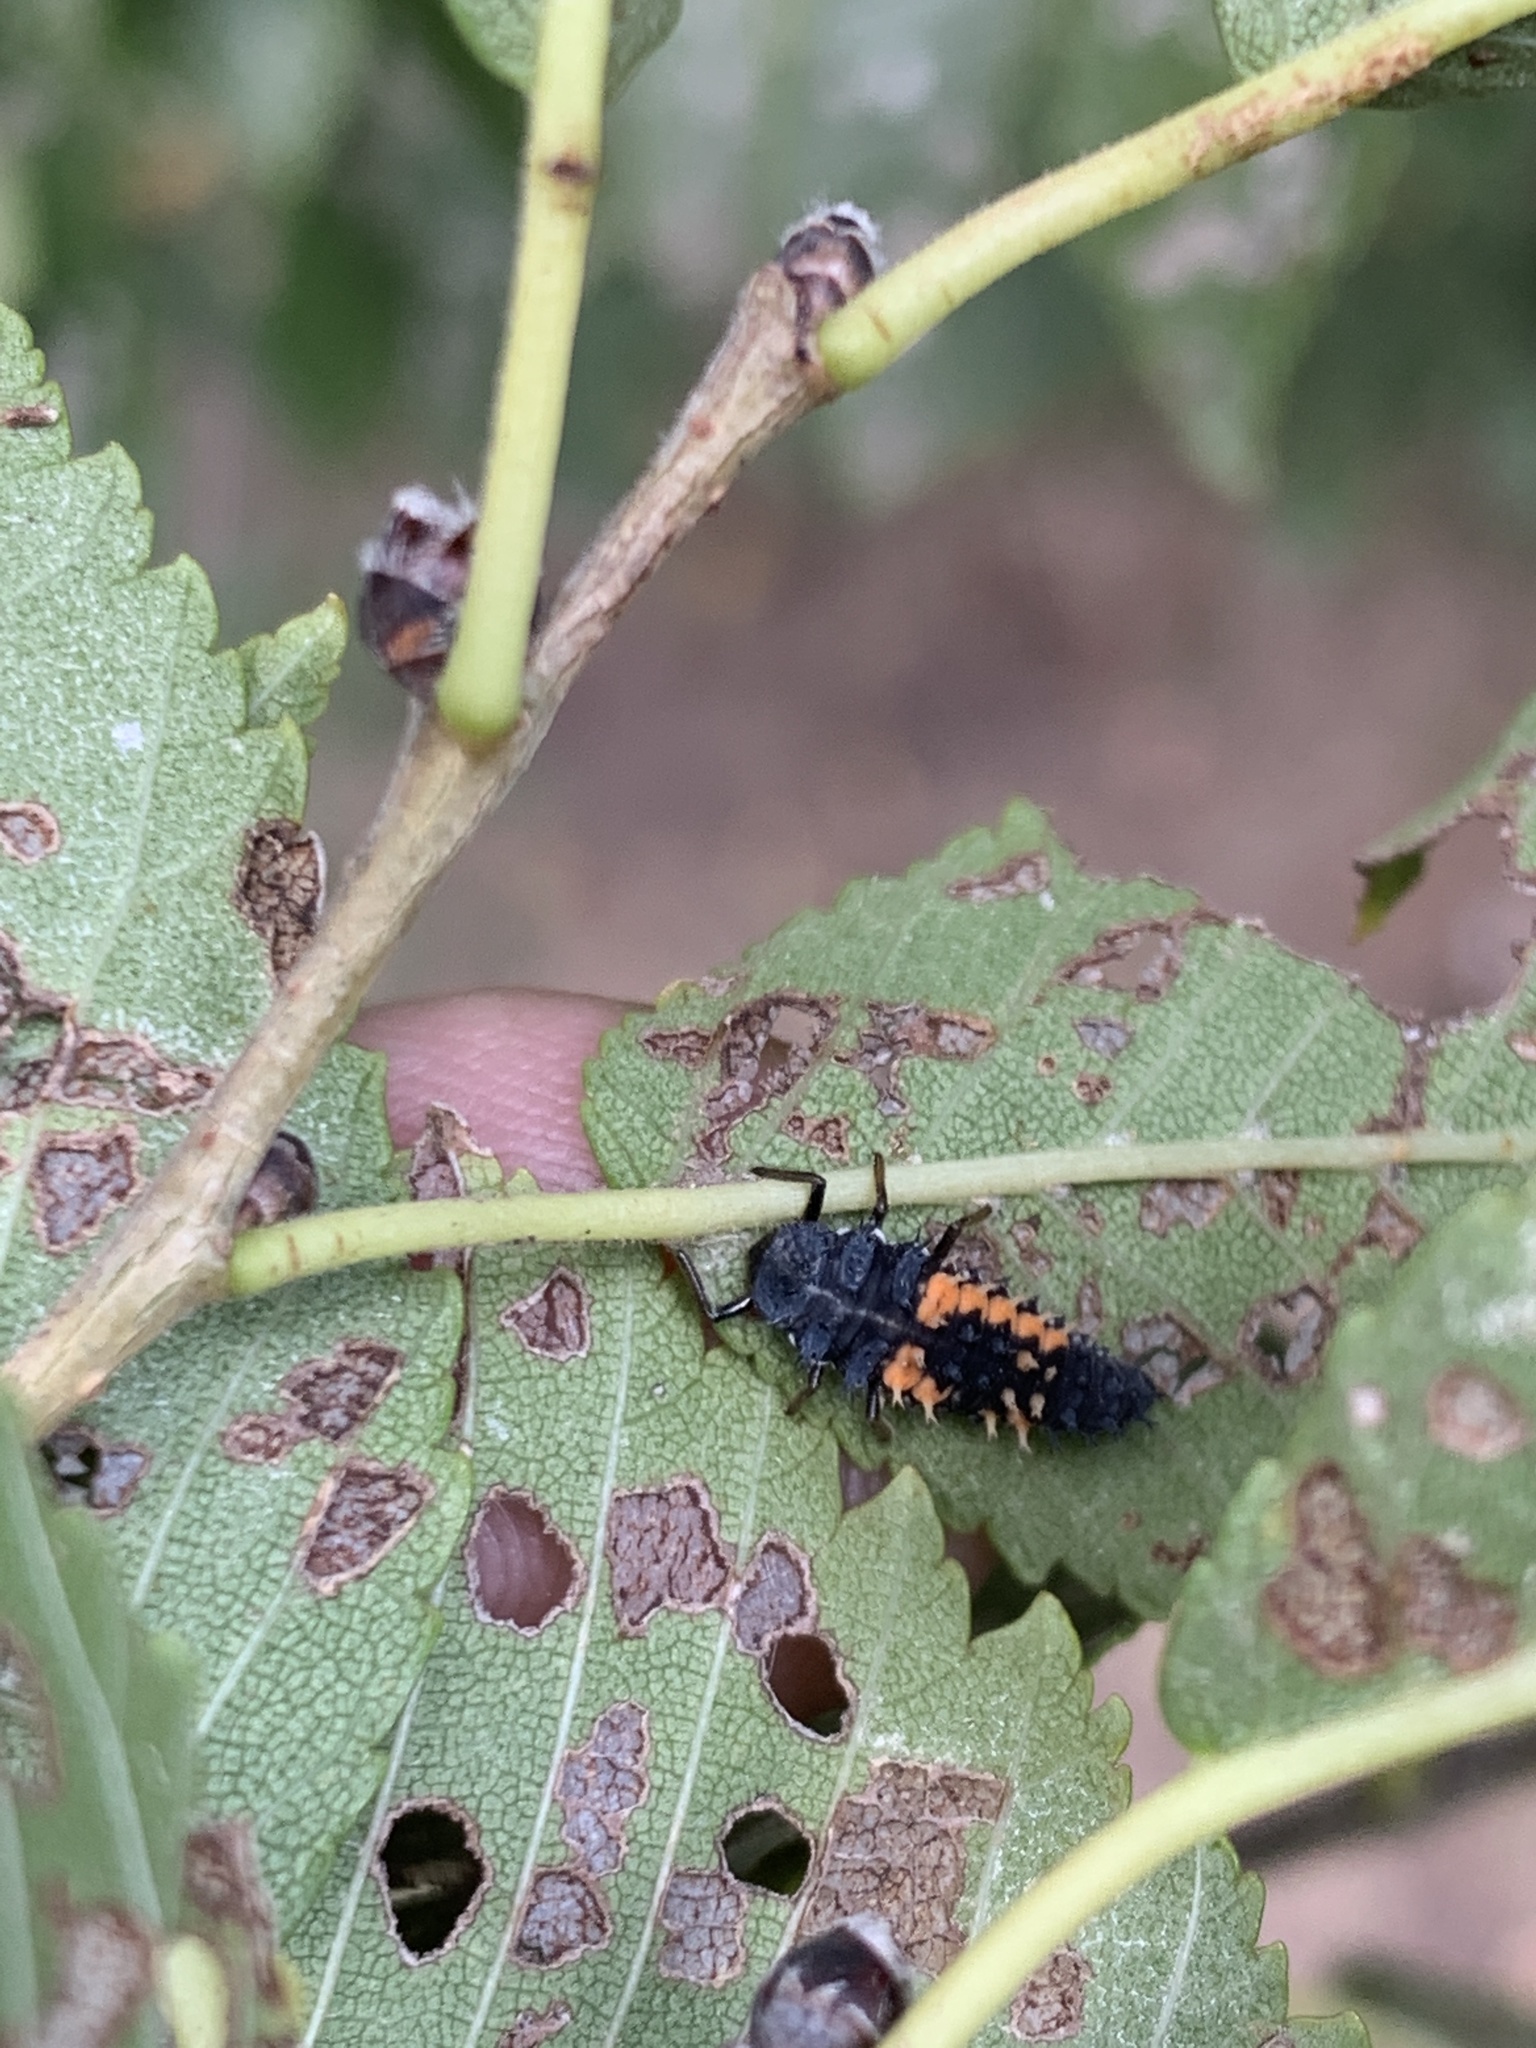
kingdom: Animalia
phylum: Arthropoda
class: Insecta
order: Coleoptera
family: Coccinellidae
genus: Harmonia
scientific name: Harmonia axyridis
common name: Harlequin ladybird
